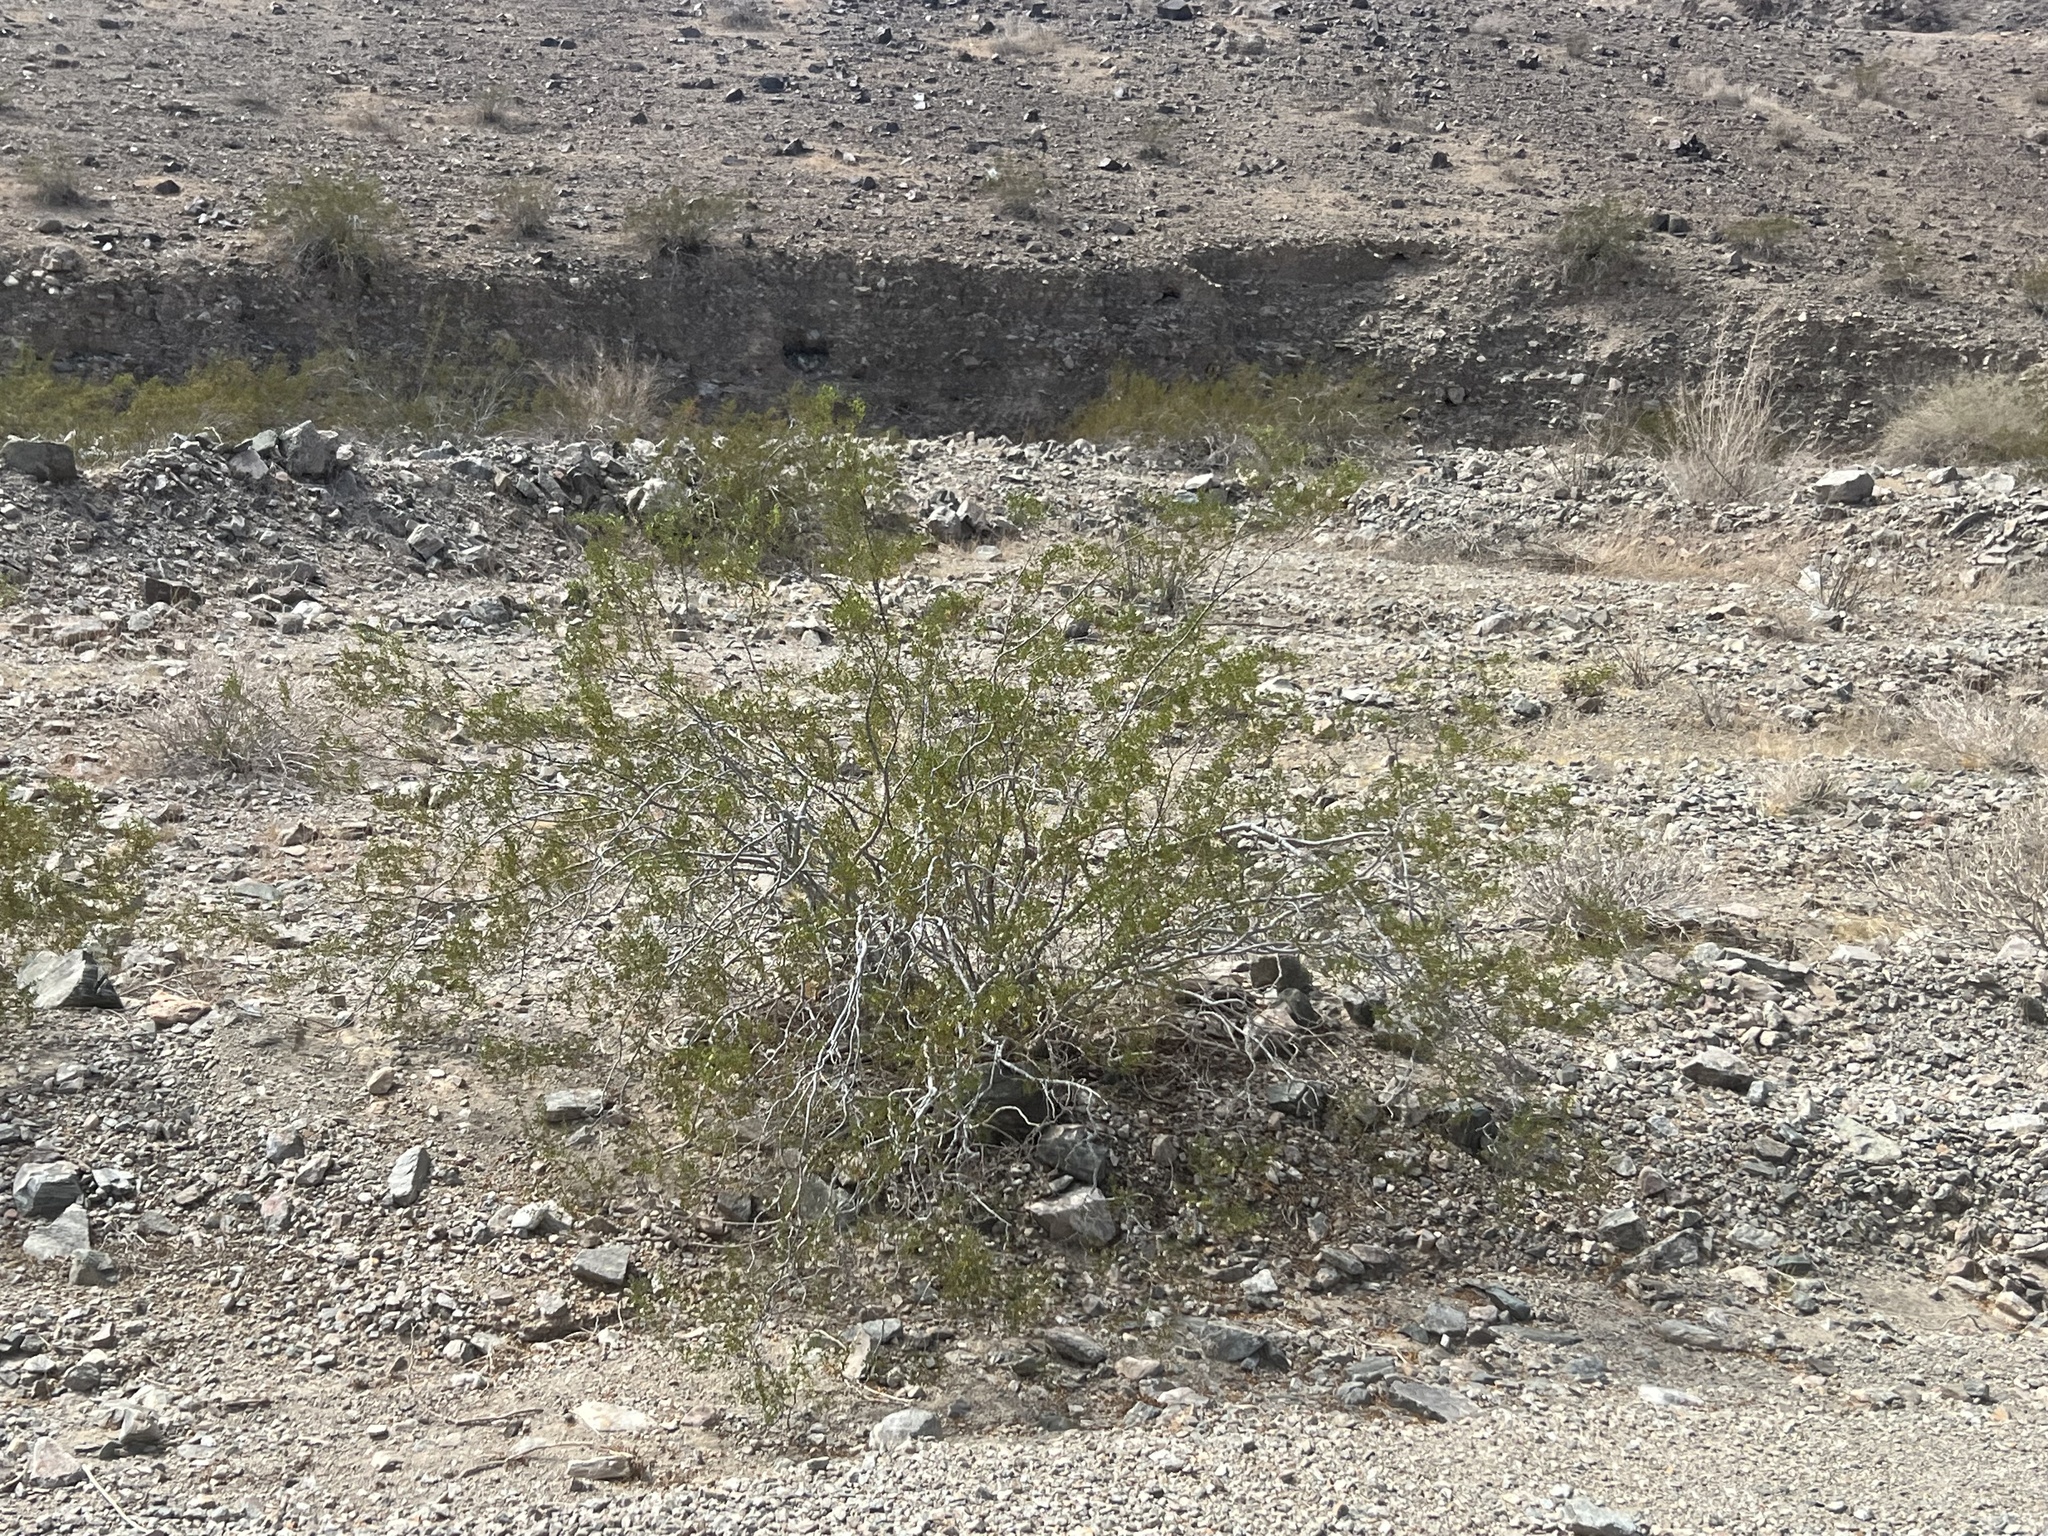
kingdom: Plantae
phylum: Tracheophyta
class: Magnoliopsida
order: Zygophyllales
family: Zygophyllaceae
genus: Larrea
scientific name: Larrea tridentata
